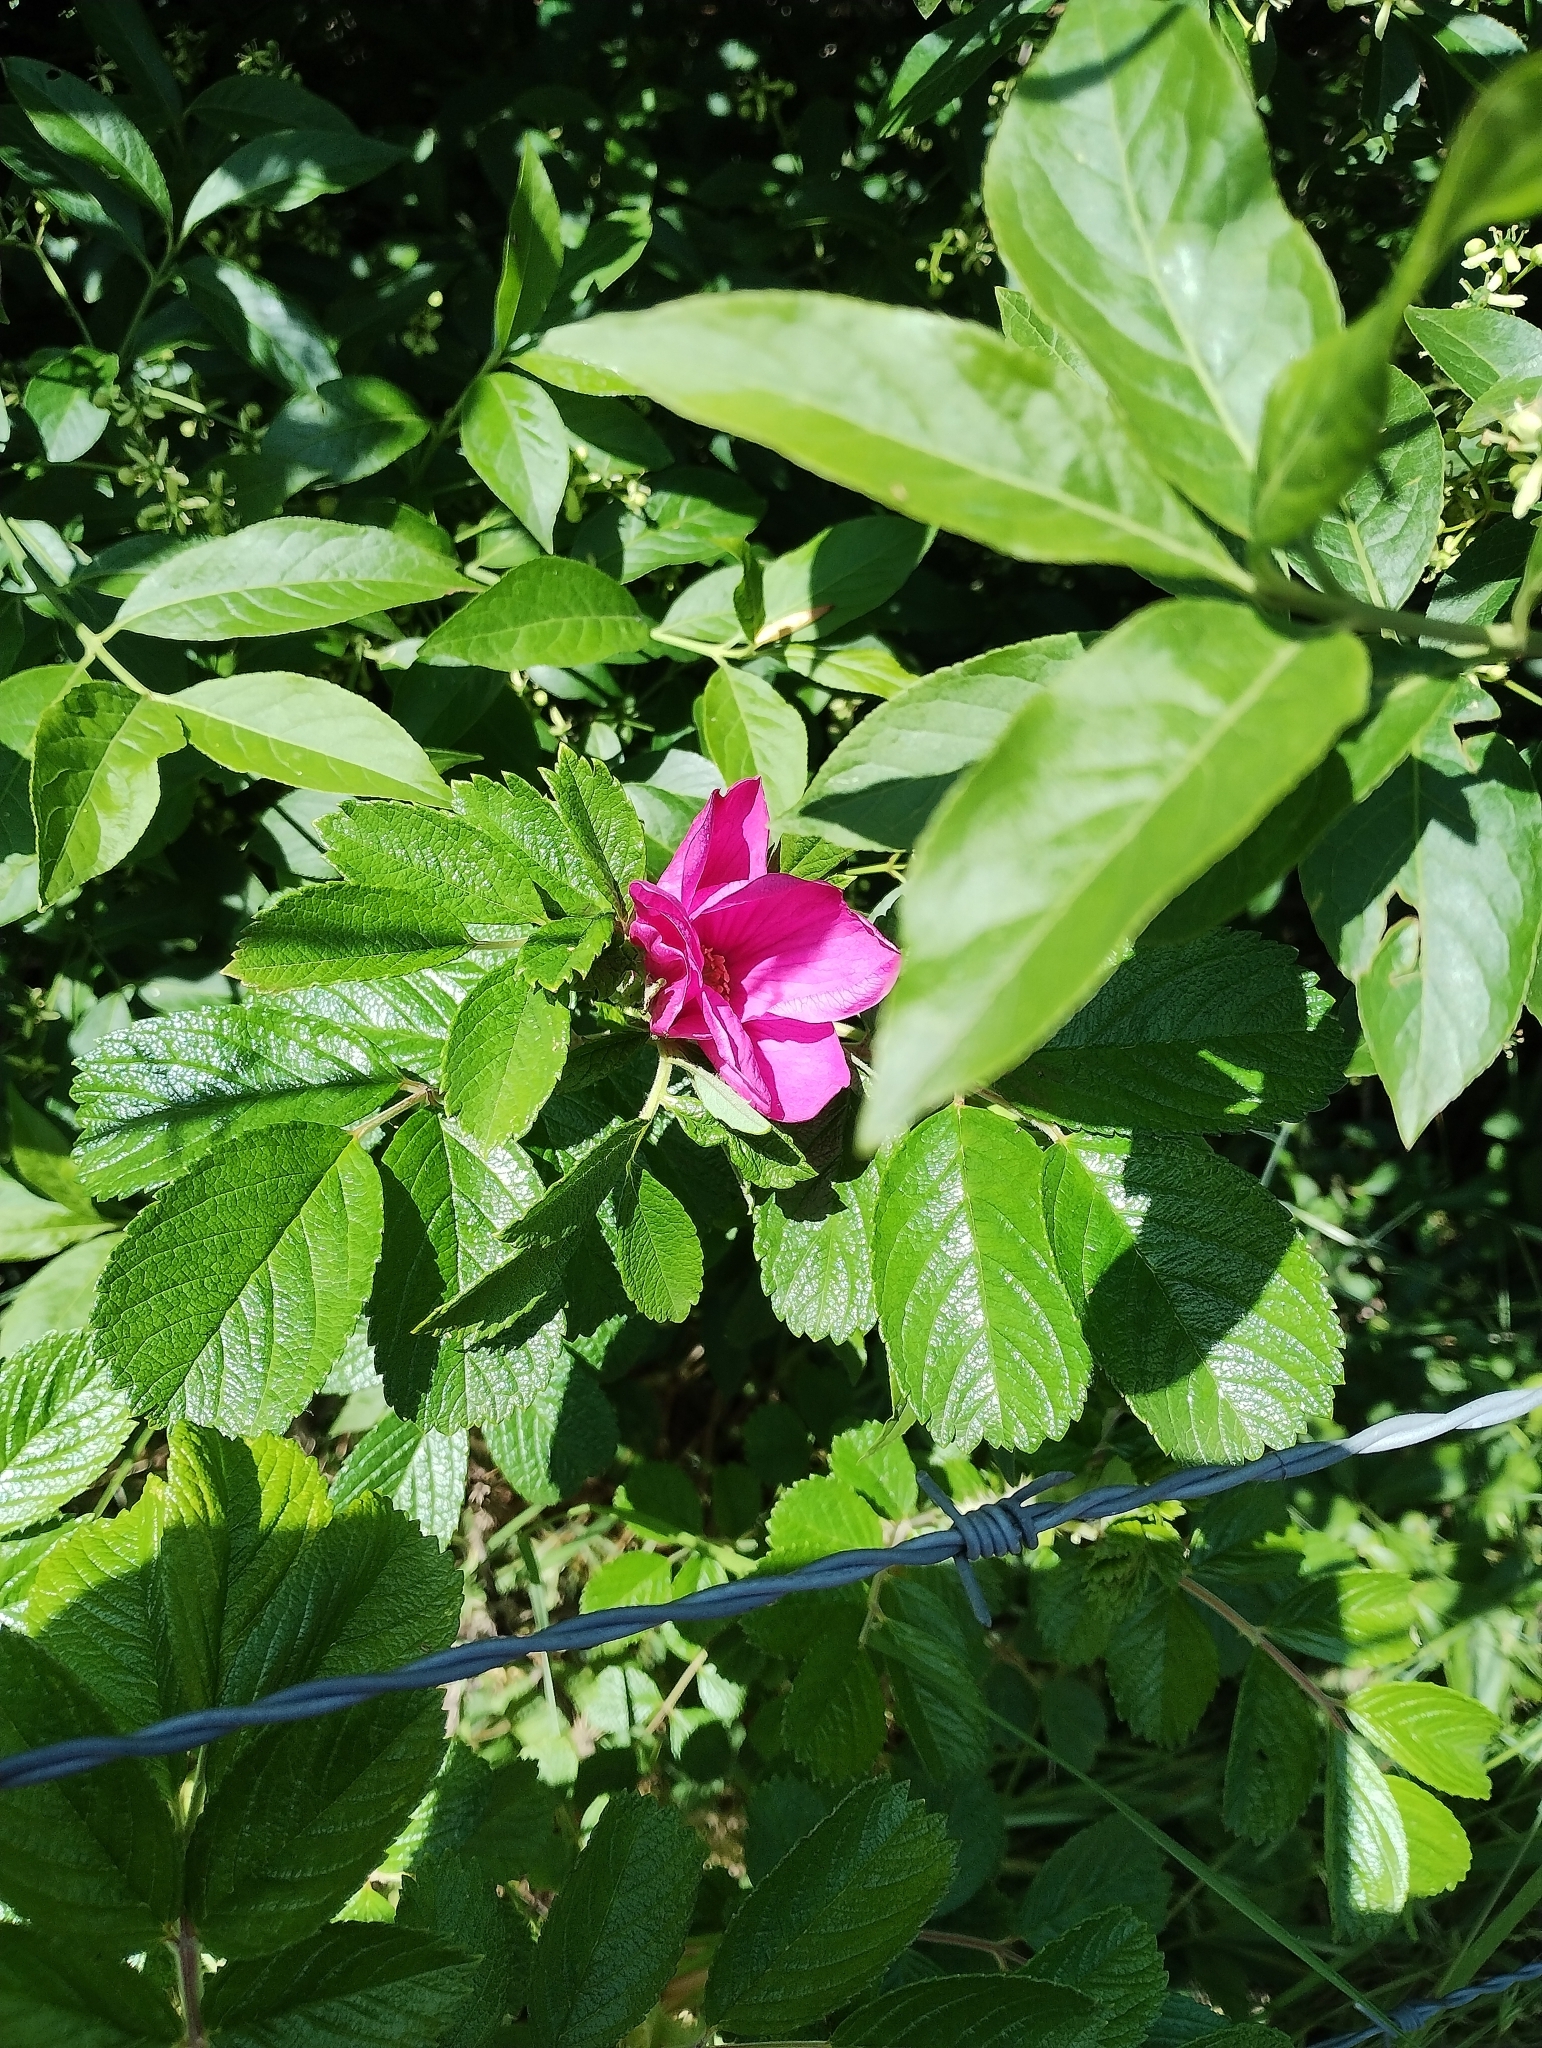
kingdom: Plantae
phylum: Tracheophyta
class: Magnoliopsida
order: Rosales
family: Rosaceae
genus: Rosa
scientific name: Rosa rugosa
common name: Japanese rose
